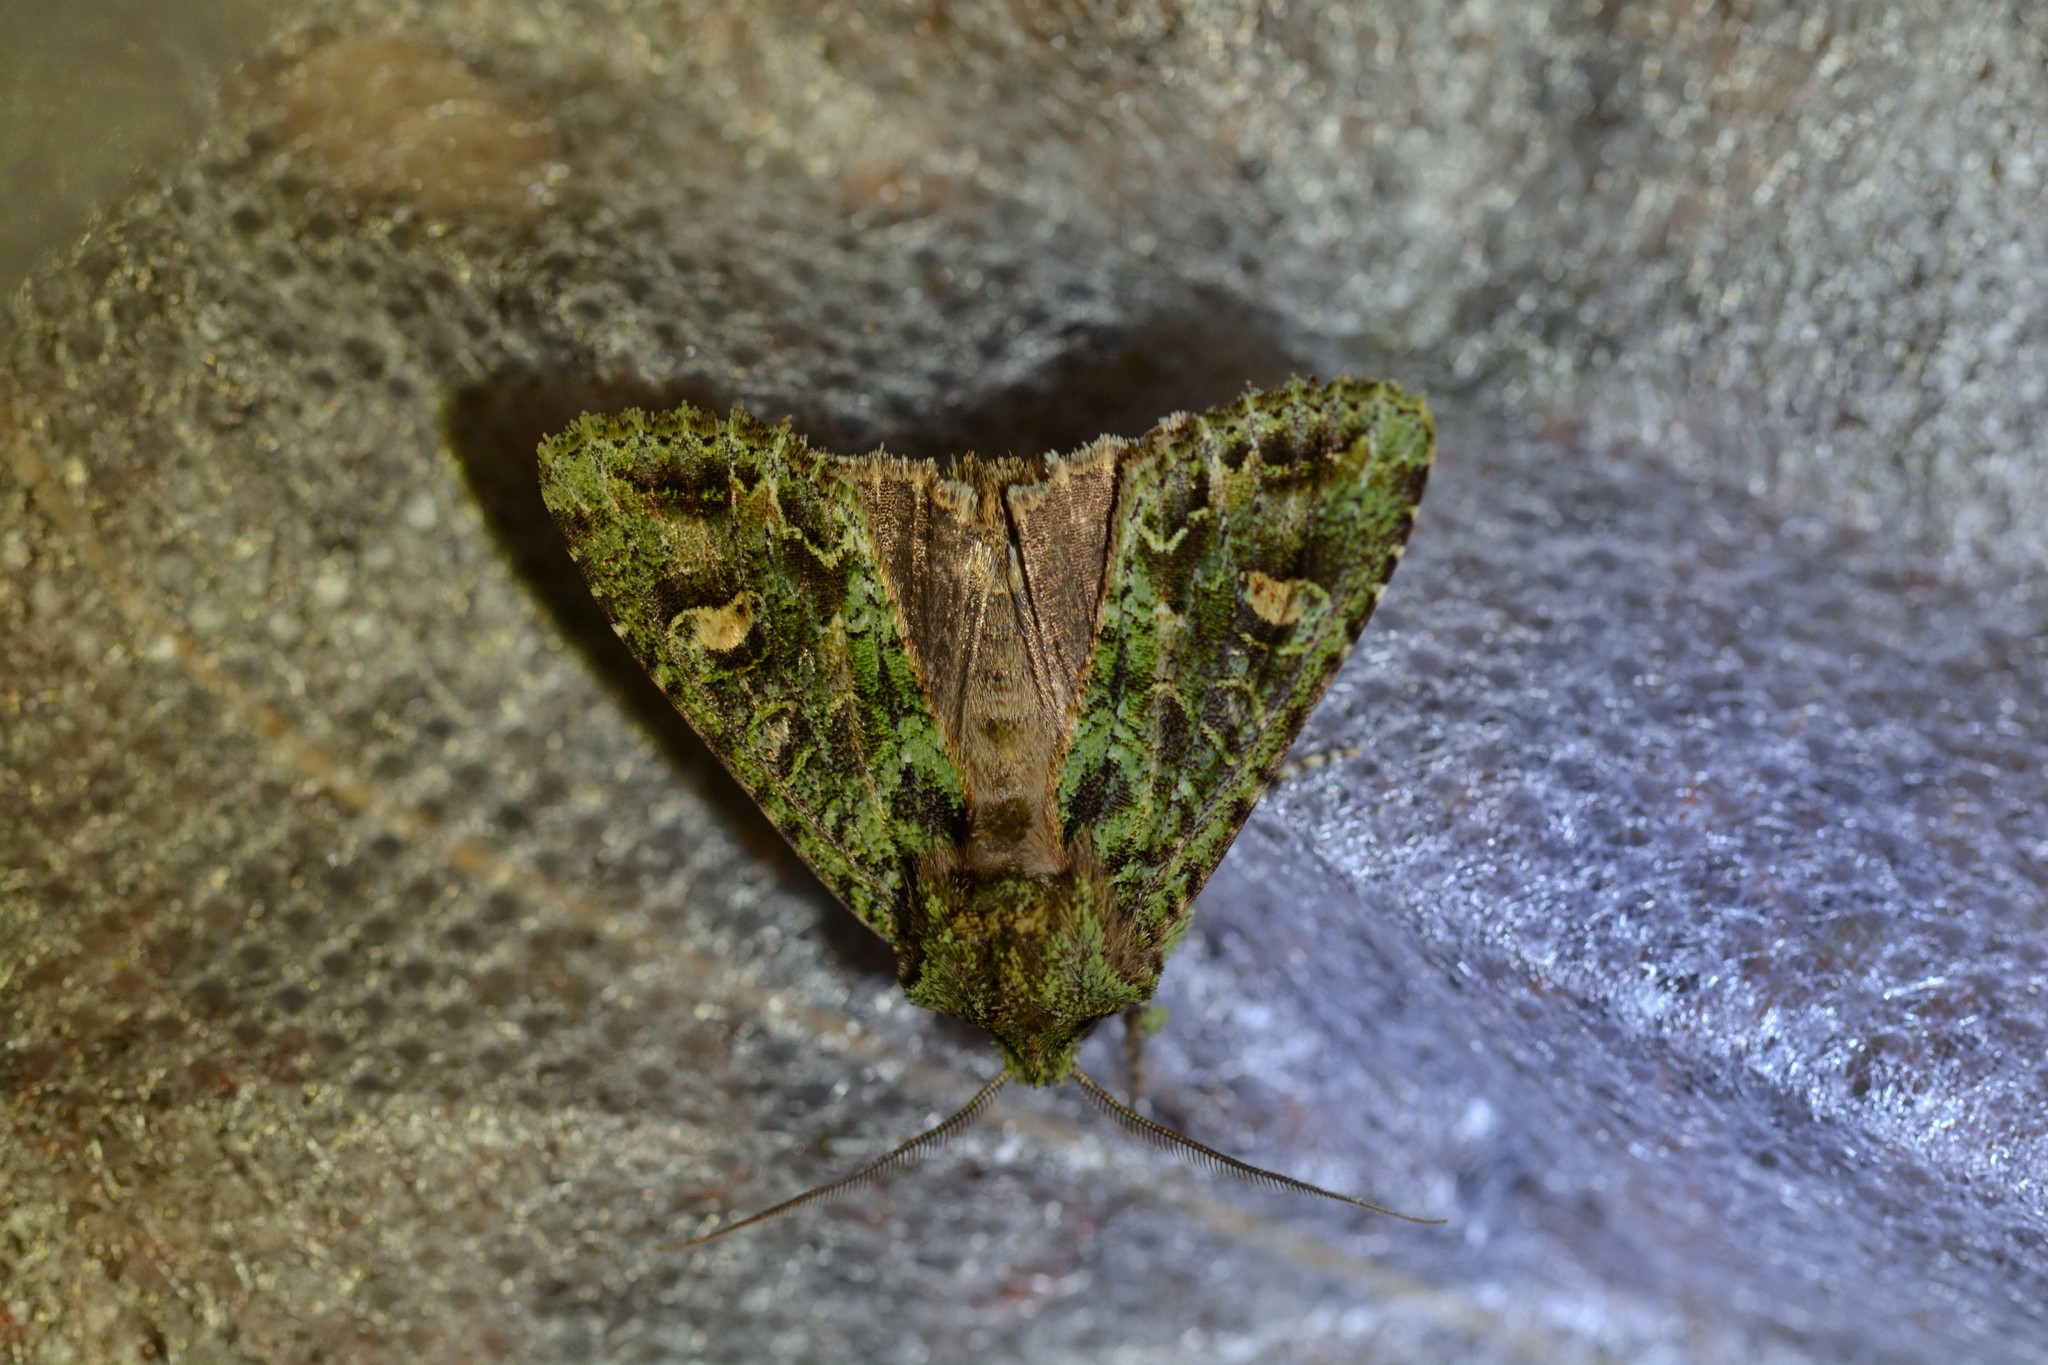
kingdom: Animalia
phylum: Arthropoda
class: Insecta
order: Lepidoptera
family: Noctuidae
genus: Ichneutica
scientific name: Ichneutica
